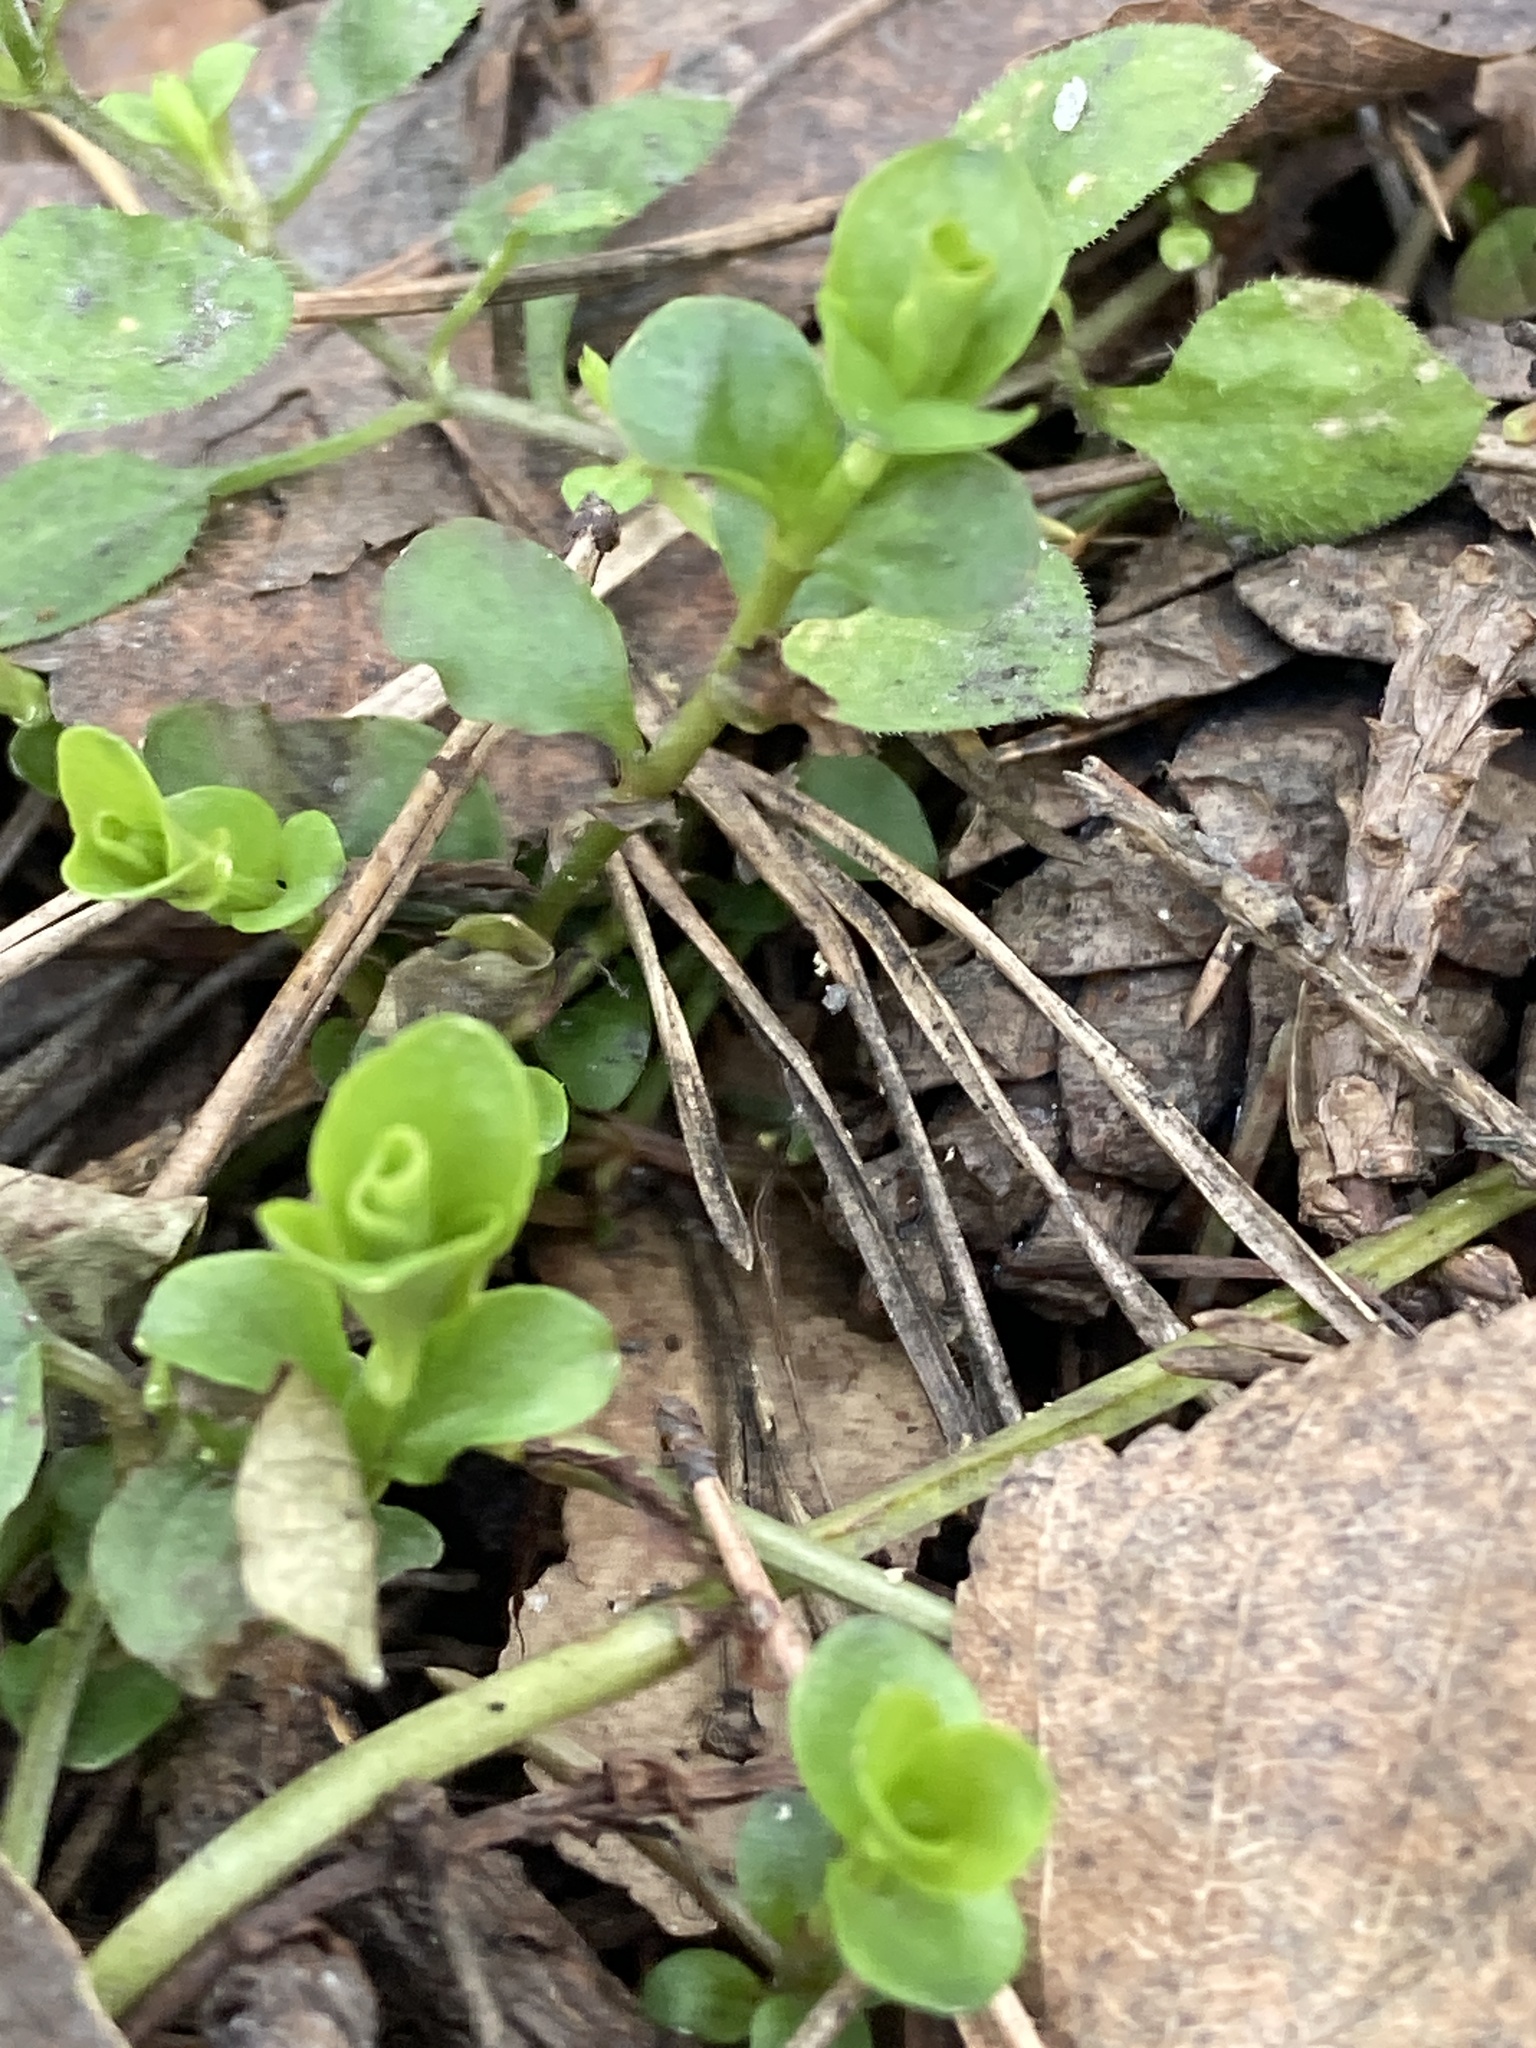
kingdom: Plantae
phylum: Tracheophyta
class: Magnoliopsida
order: Ericales
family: Primulaceae
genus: Lysimachia
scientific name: Lysimachia nummularia
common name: Moneywort
